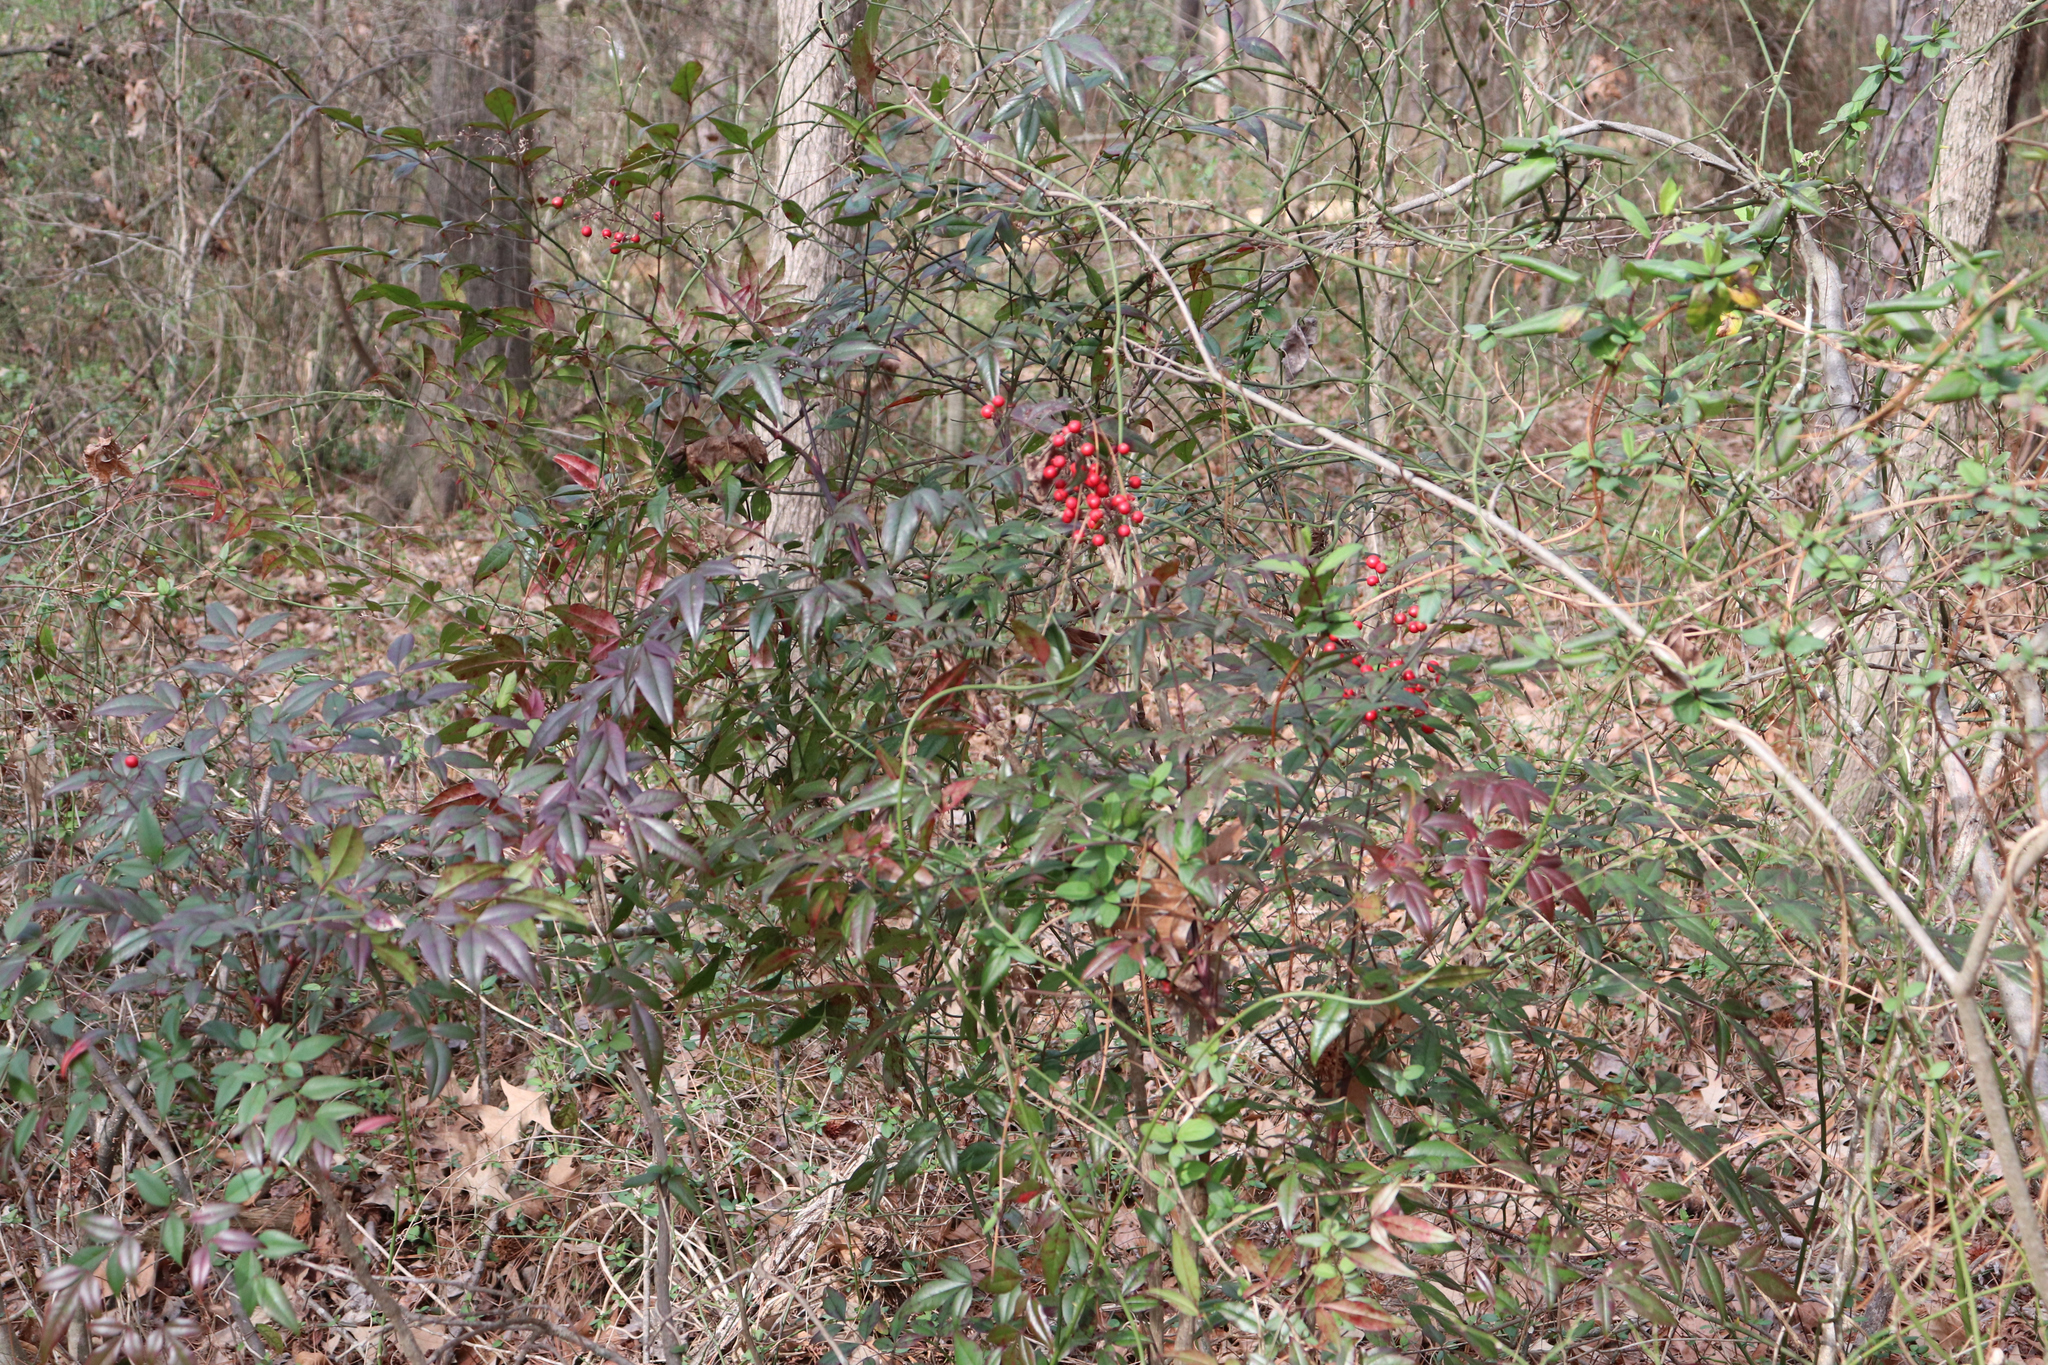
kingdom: Plantae
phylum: Tracheophyta
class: Magnoliopsida
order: Ranunculales
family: Berberidaceae
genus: Nandina
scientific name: Nandina domestica
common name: Sacred bamboo
